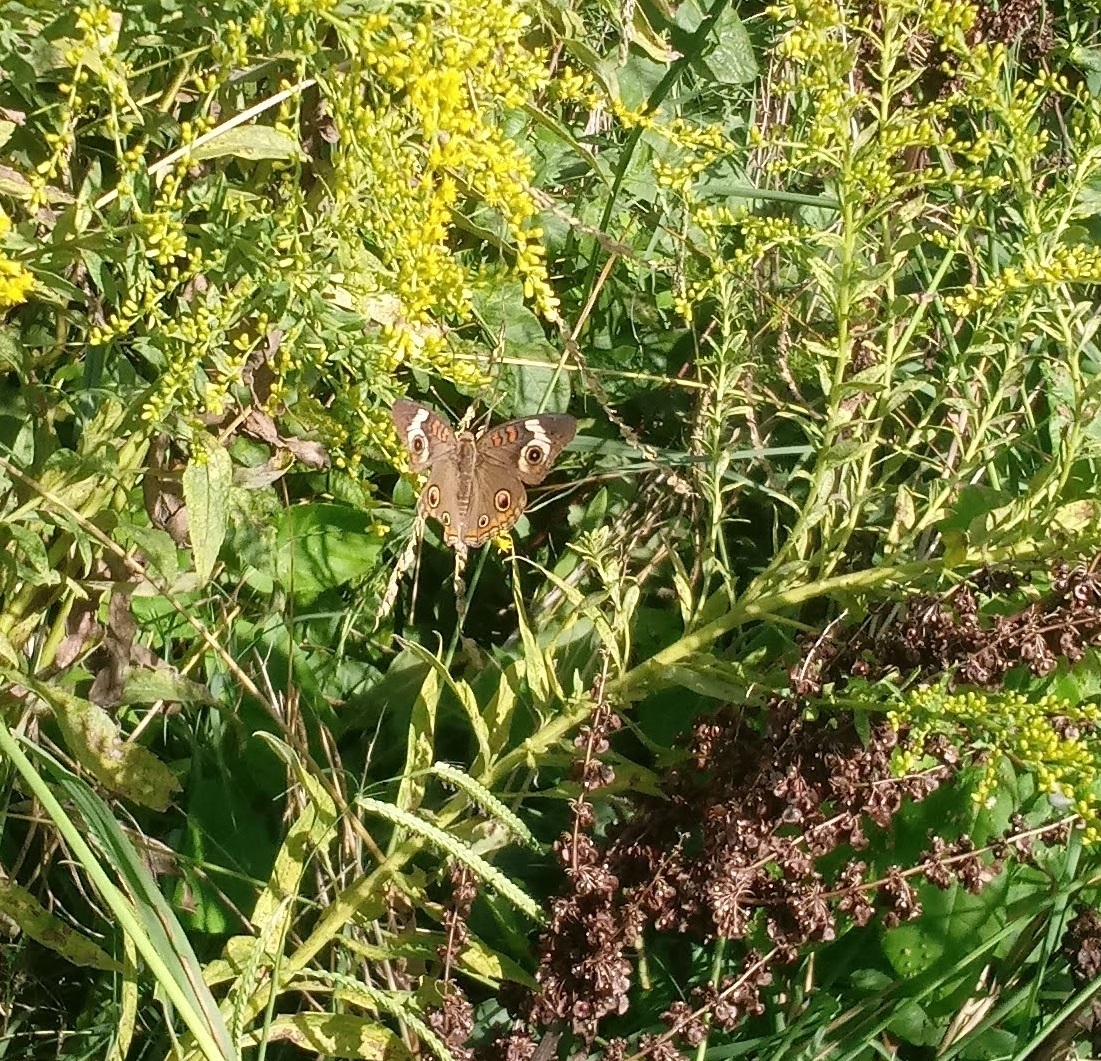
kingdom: Animalia
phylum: Arthropoda
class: Insecta
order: Lepidoptera
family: Nymphalidae
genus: Junonia
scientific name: Junonia coenia
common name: Common buckeye
